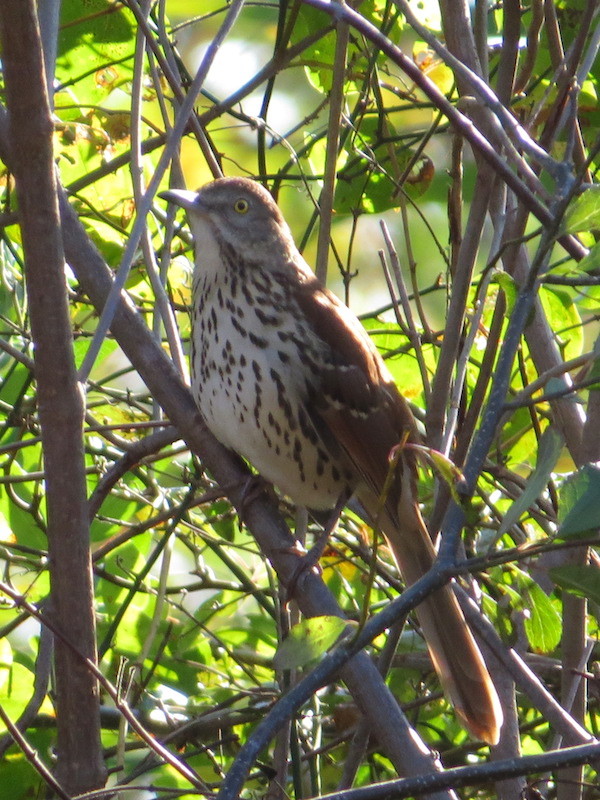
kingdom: Animalia
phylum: Chordata
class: Aves
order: Passeriformes
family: Mimidae
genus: Toxostoma
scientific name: Toxostoma rufum
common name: Brown thrasher
